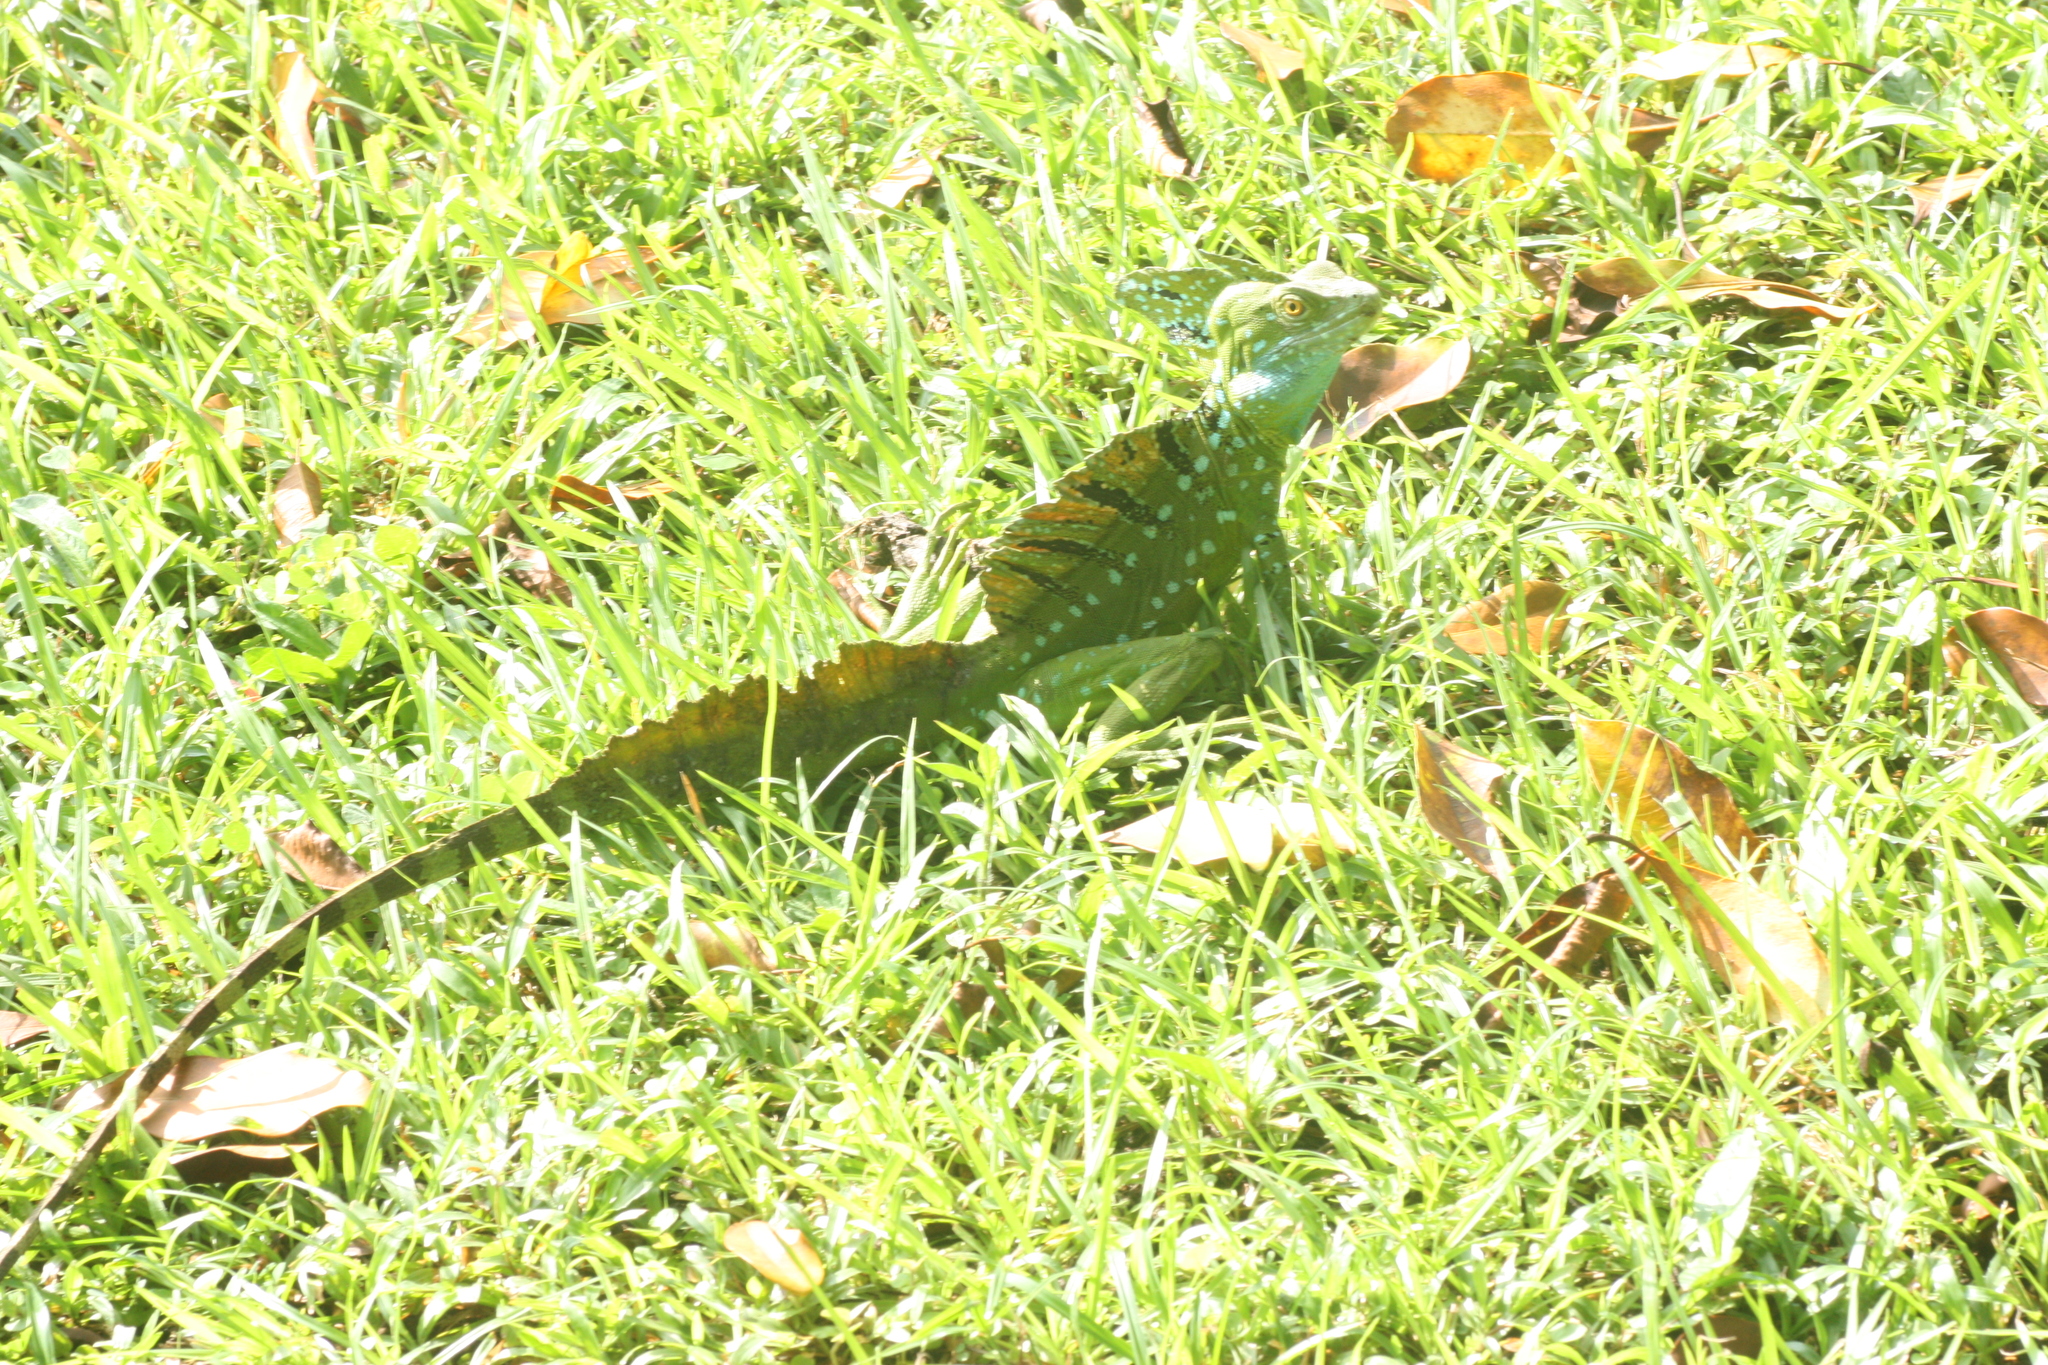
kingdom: Animalia
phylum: Chordata
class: Squamata
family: Corytophanidae
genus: Basiliscus
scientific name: Basiliscus plumifrons
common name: Green basilisk
